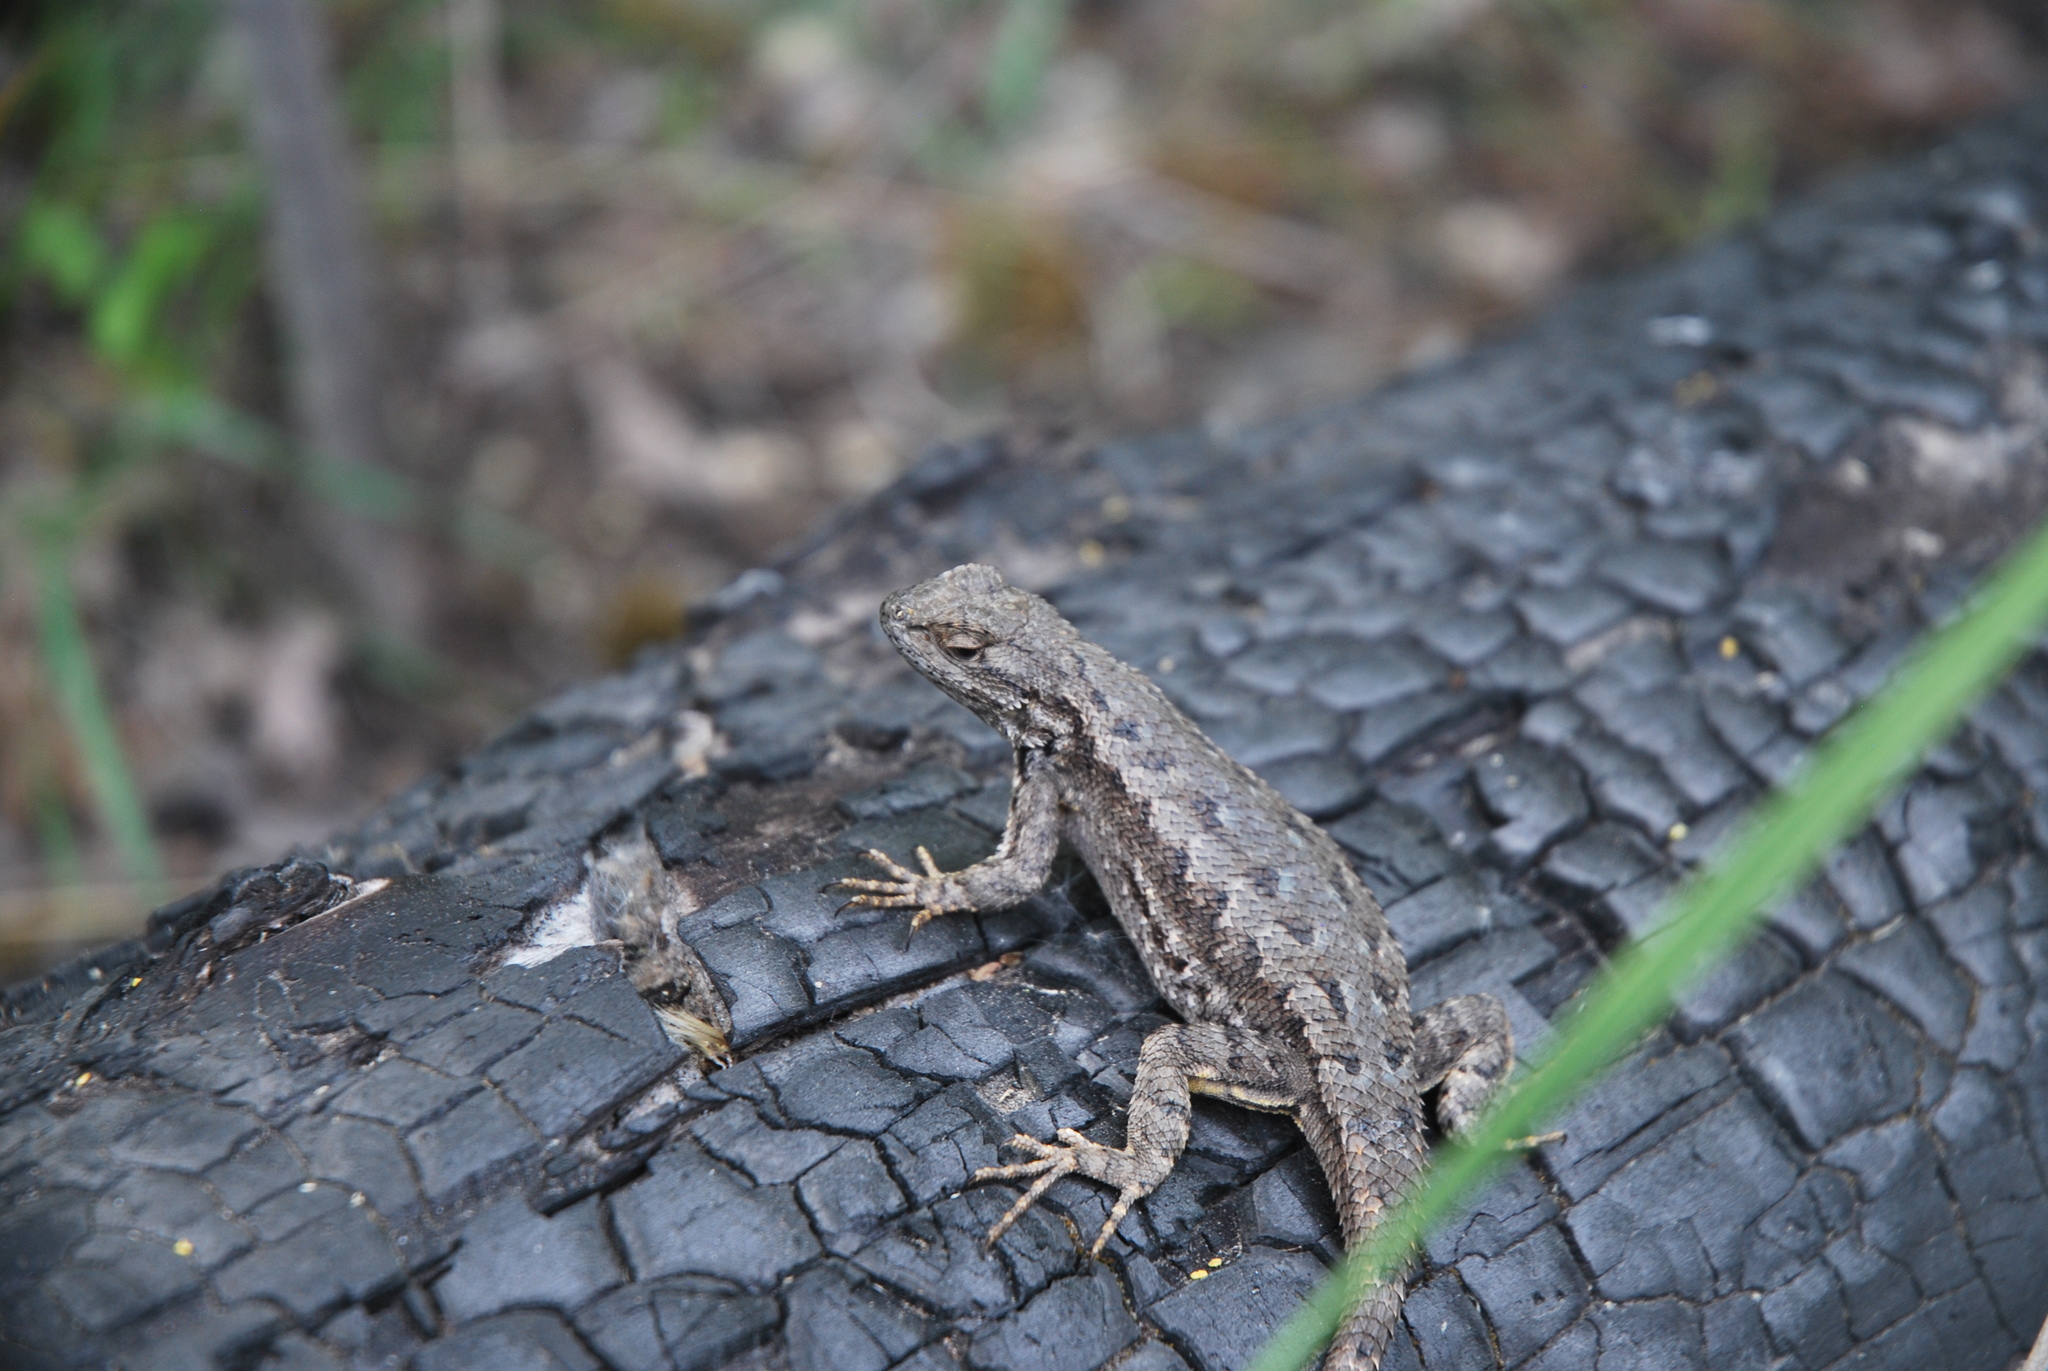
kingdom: Animalia
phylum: Chordata
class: Squamata
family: Phrynosomatidae
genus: Sceloporus
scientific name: Sceloporus occidentalis
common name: Western fence lizard
